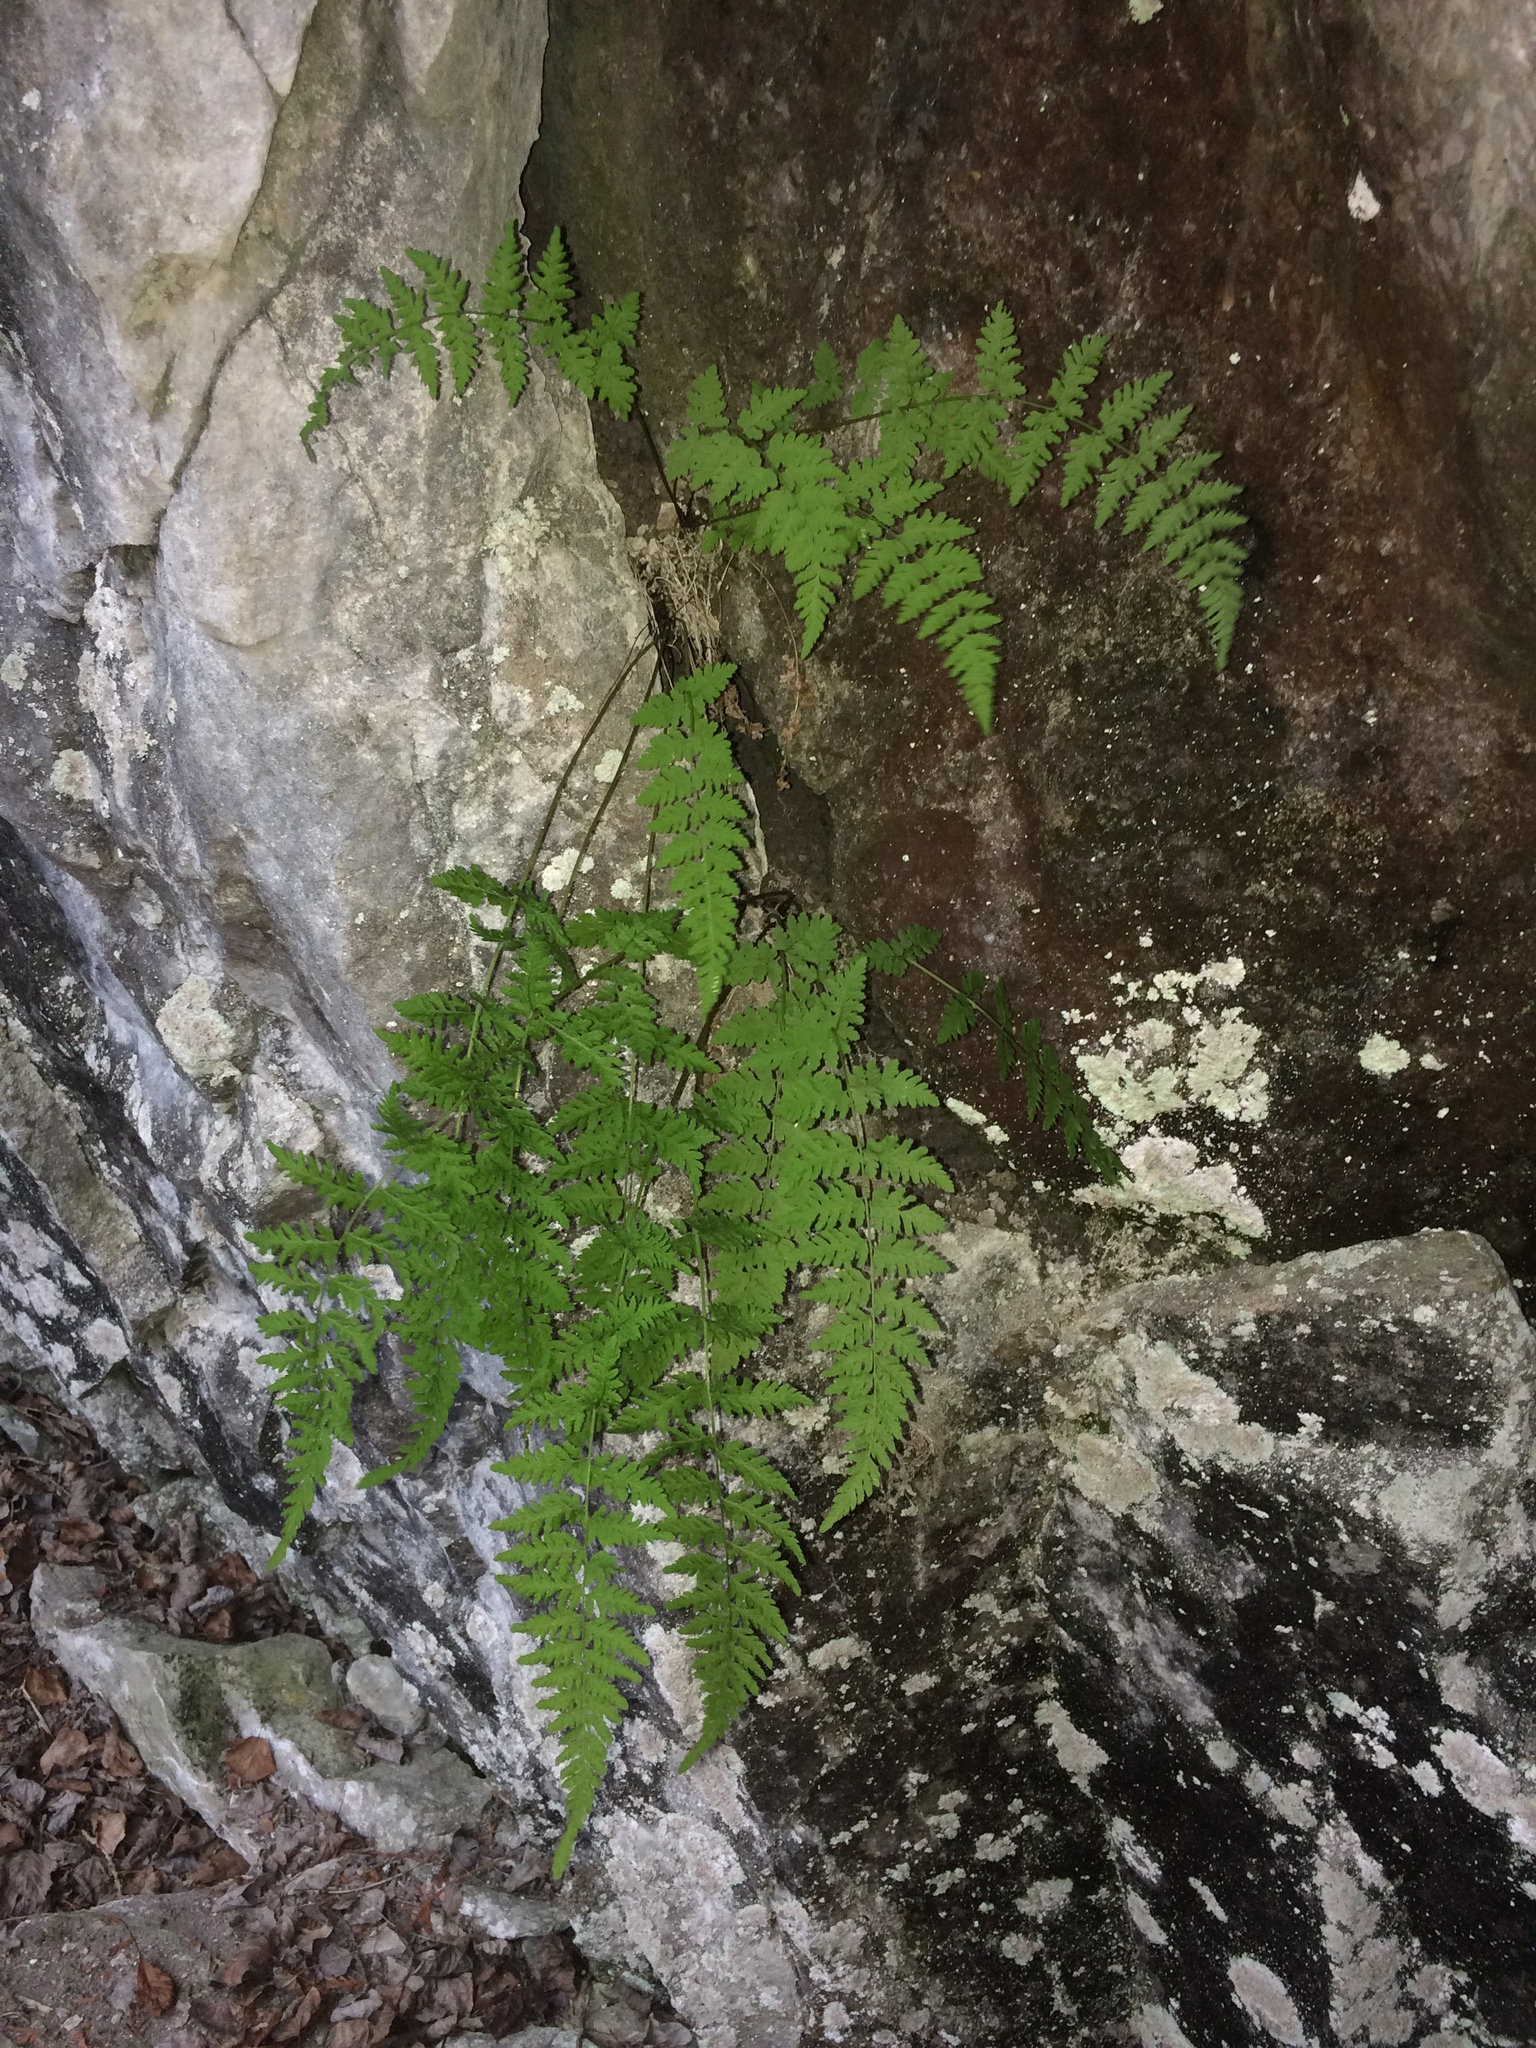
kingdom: Plantae
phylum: Tracheophyta
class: Polypodiopsida
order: Polypodiales
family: Cystopteridaceae
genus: Cystopteris
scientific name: Cystopteris laurentiana
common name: Blasdell's laurentian bladder fern
